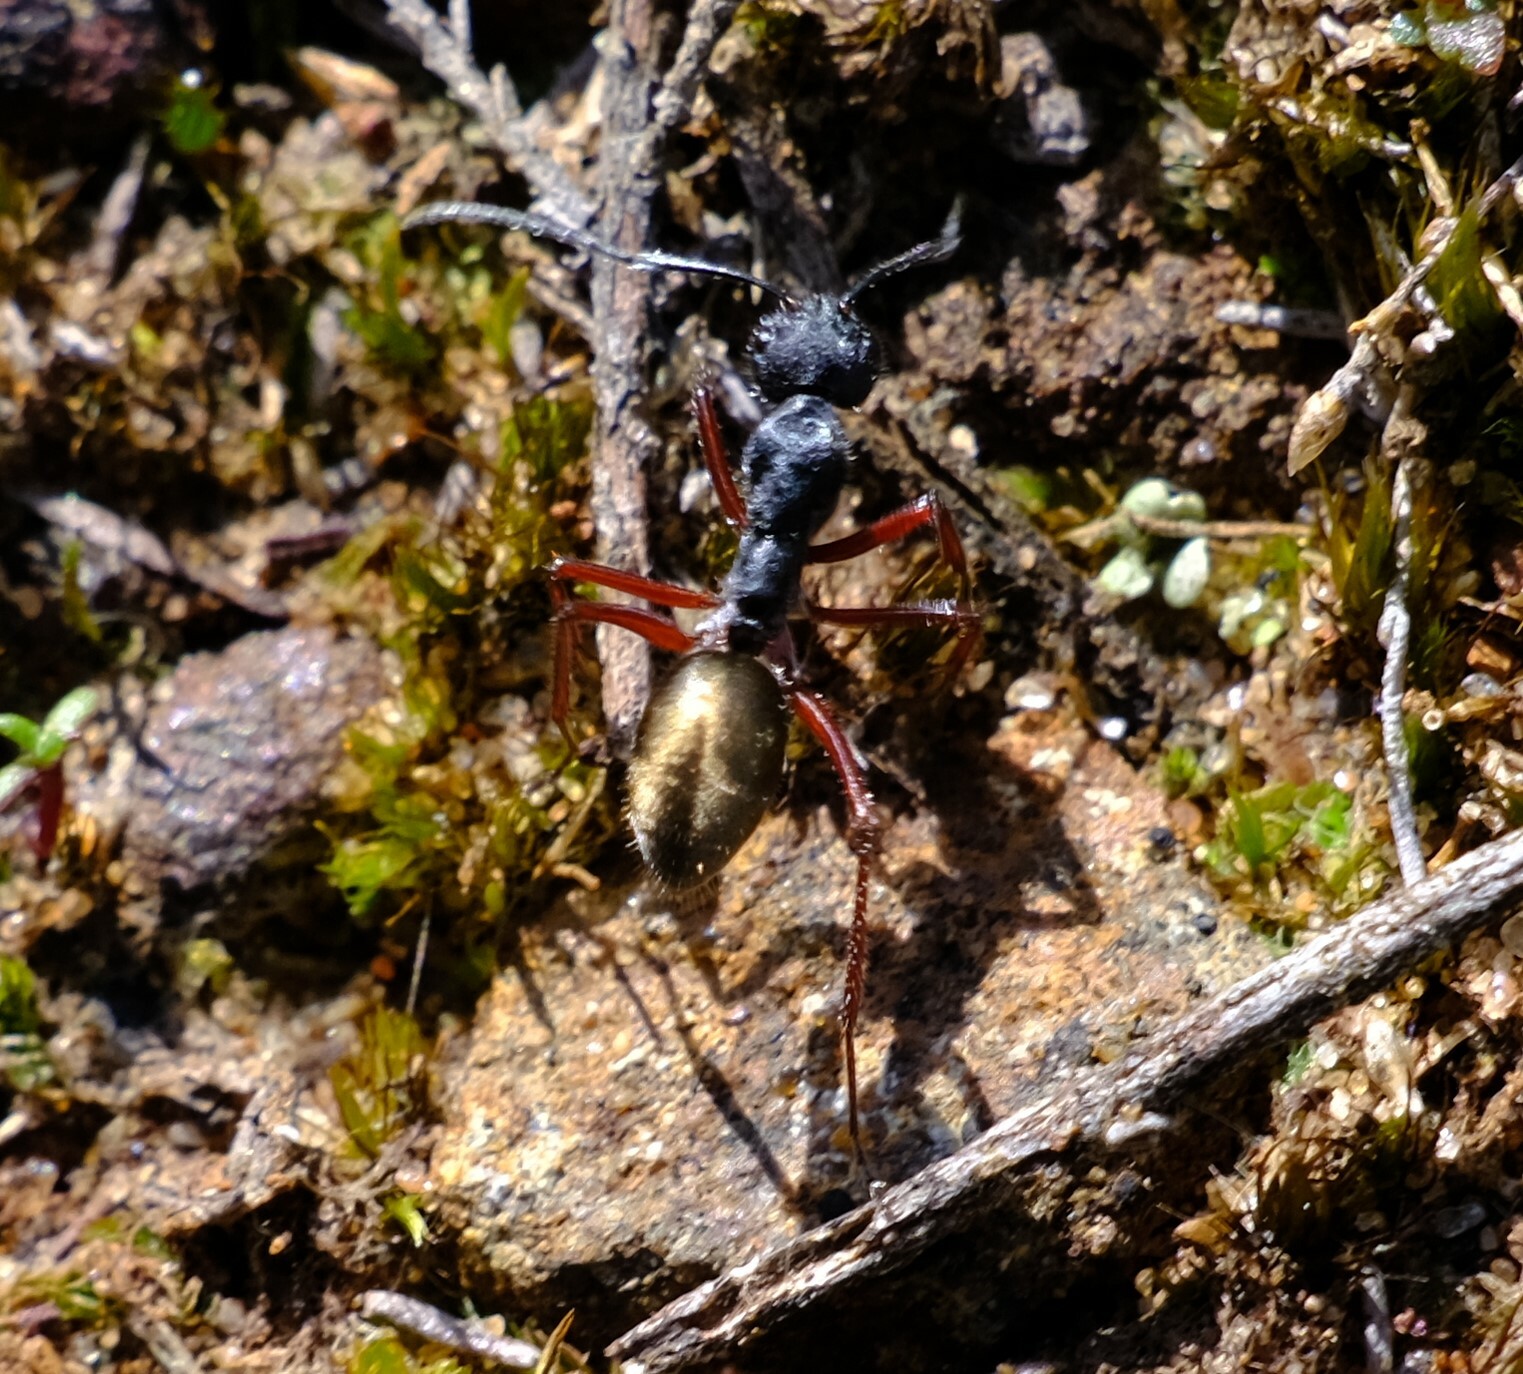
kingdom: Animalia
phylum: Arthropoda
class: Insecta
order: Hymenoptera
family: Formicidae
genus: Camponotus
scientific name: Camponotus suffusus
